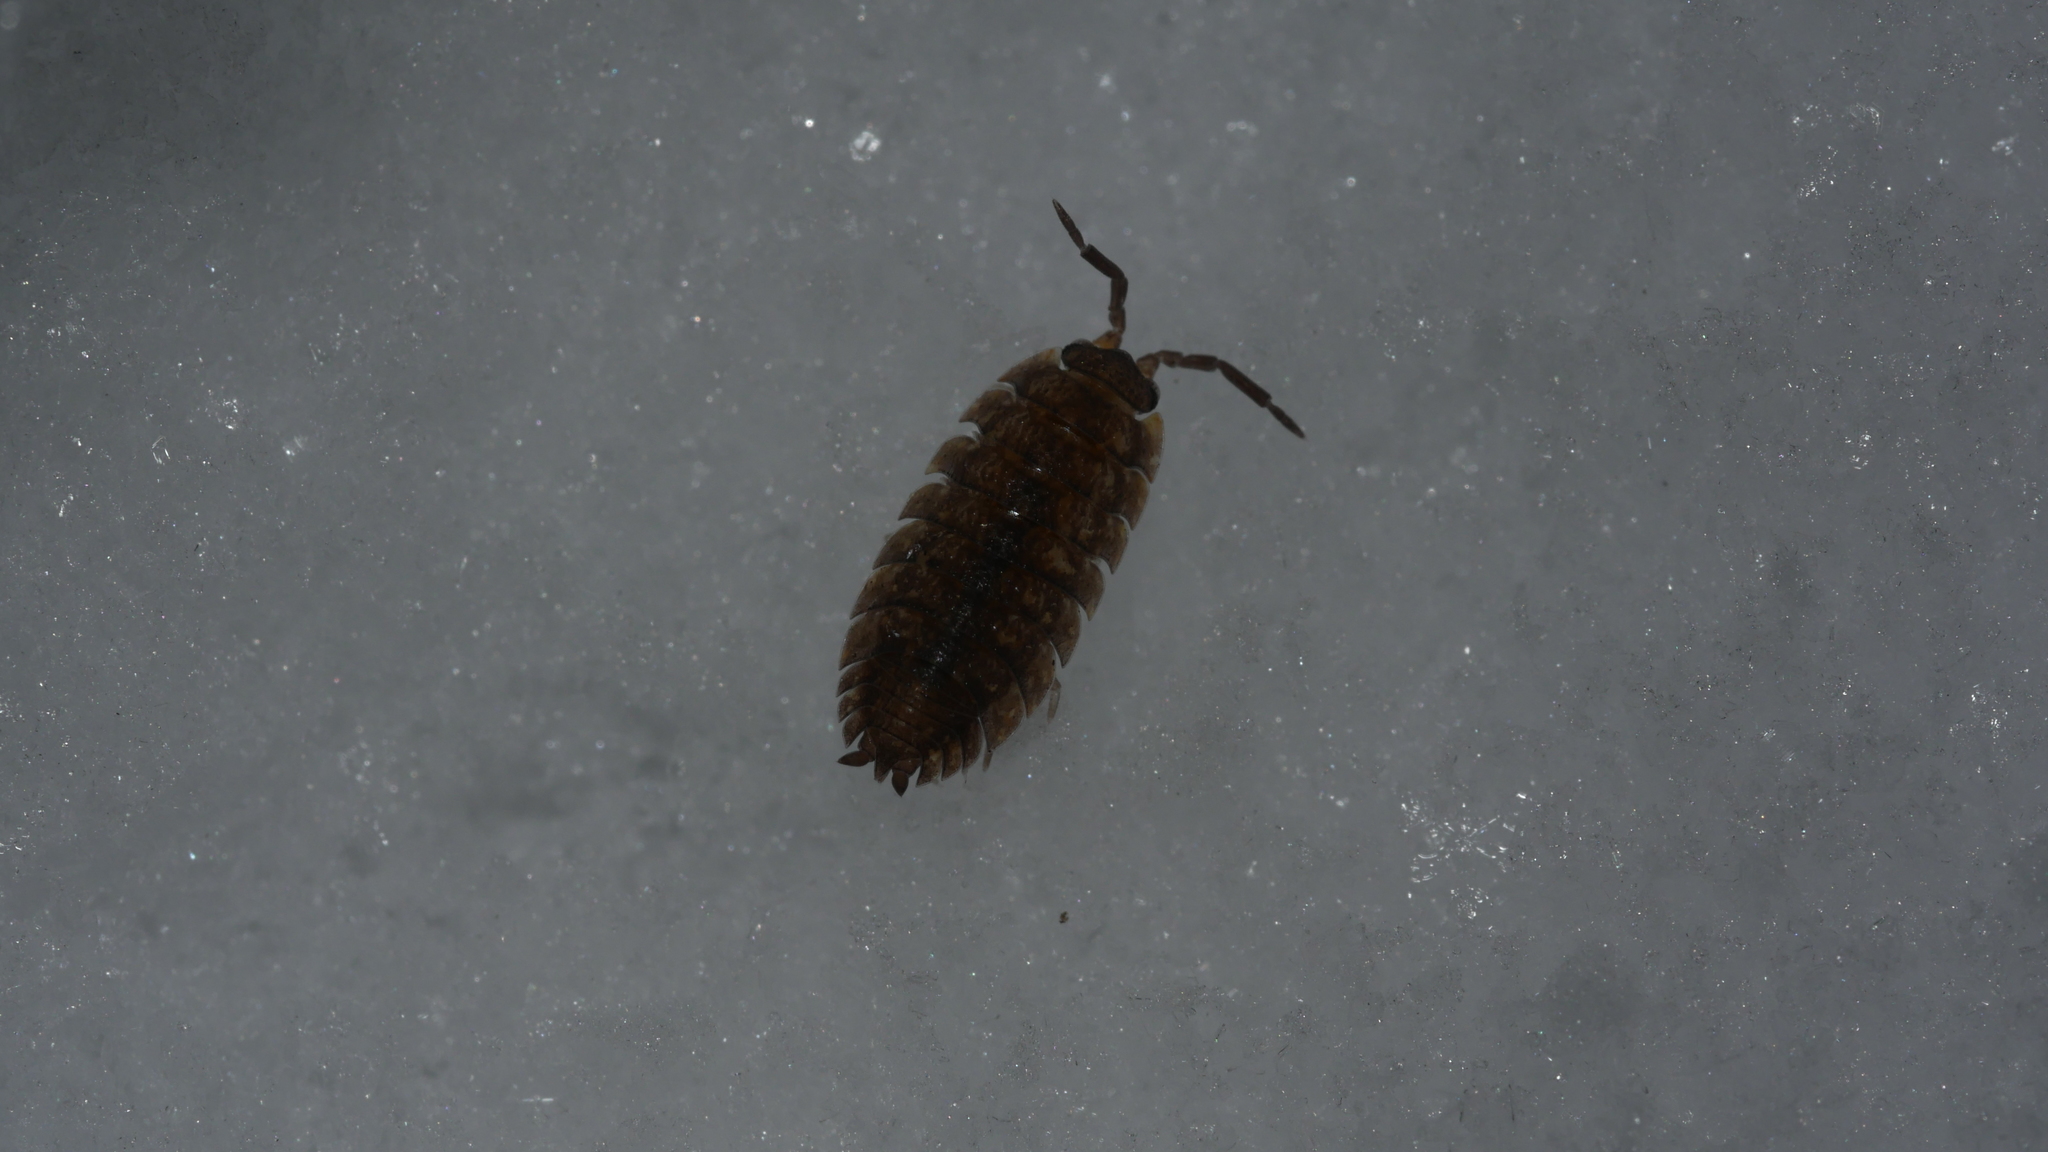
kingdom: Animalia
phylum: Arthropoda
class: Malacostraca
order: Isopoda
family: Porcellionidae
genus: Porcellio
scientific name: Porcellio scaber
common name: Common rough woodlouse
